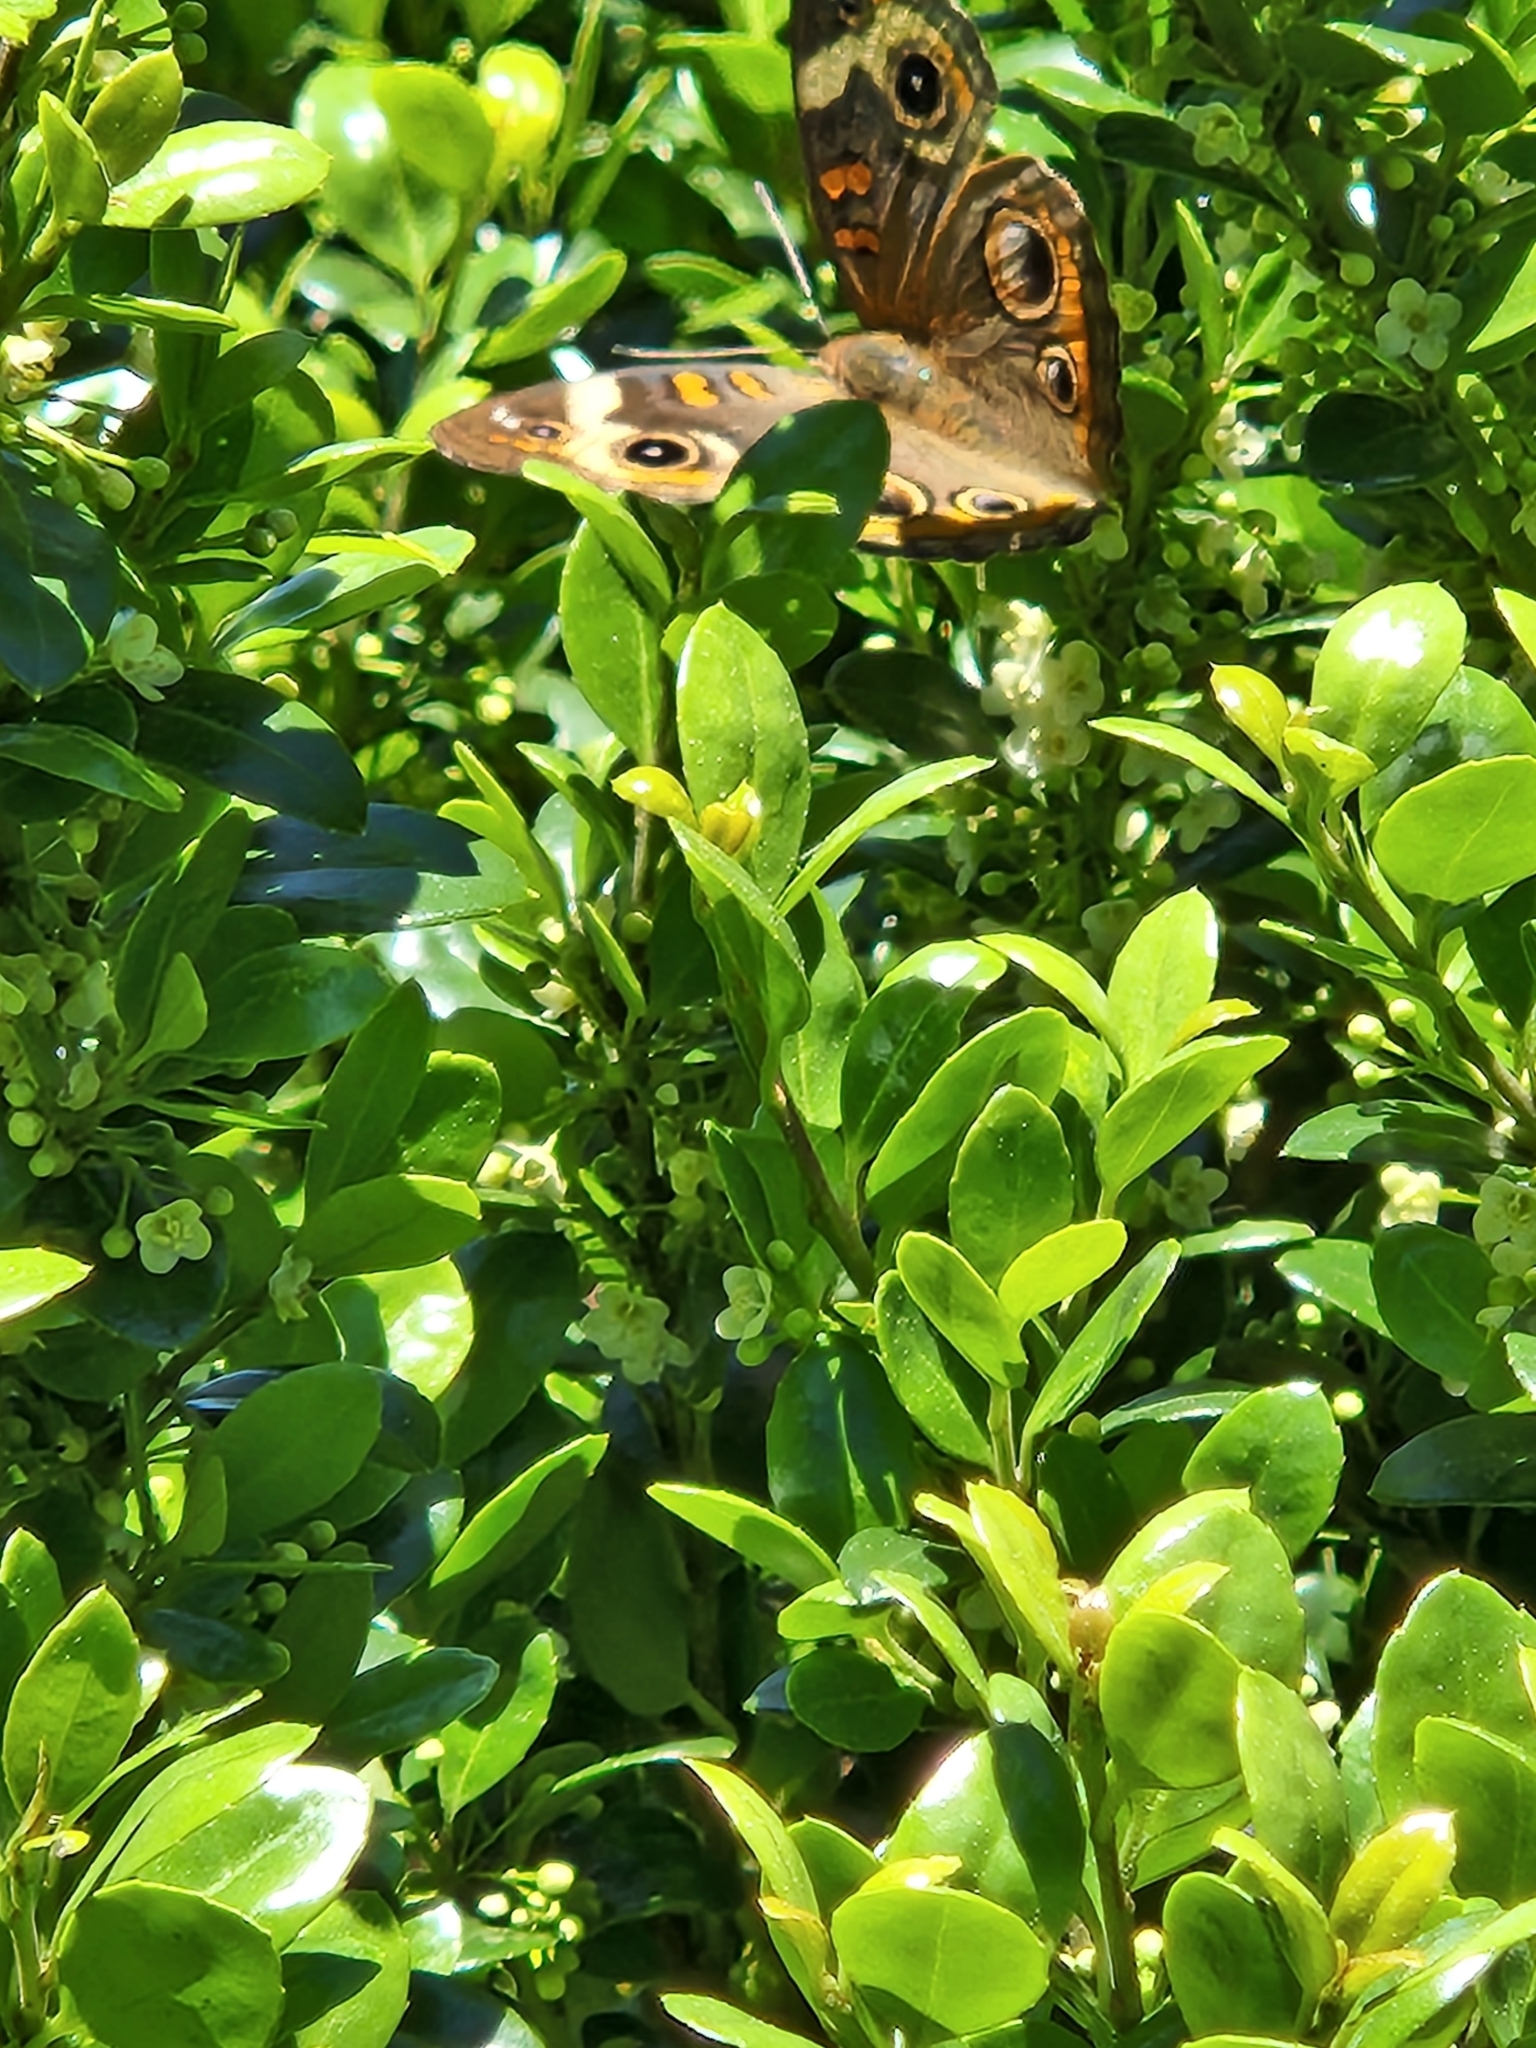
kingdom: Animalia
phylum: Arthropoda
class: Insecta
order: Lepidoptera
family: Nymphalidae
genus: Junonia
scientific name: Junonia coenia
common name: Common buckeye
